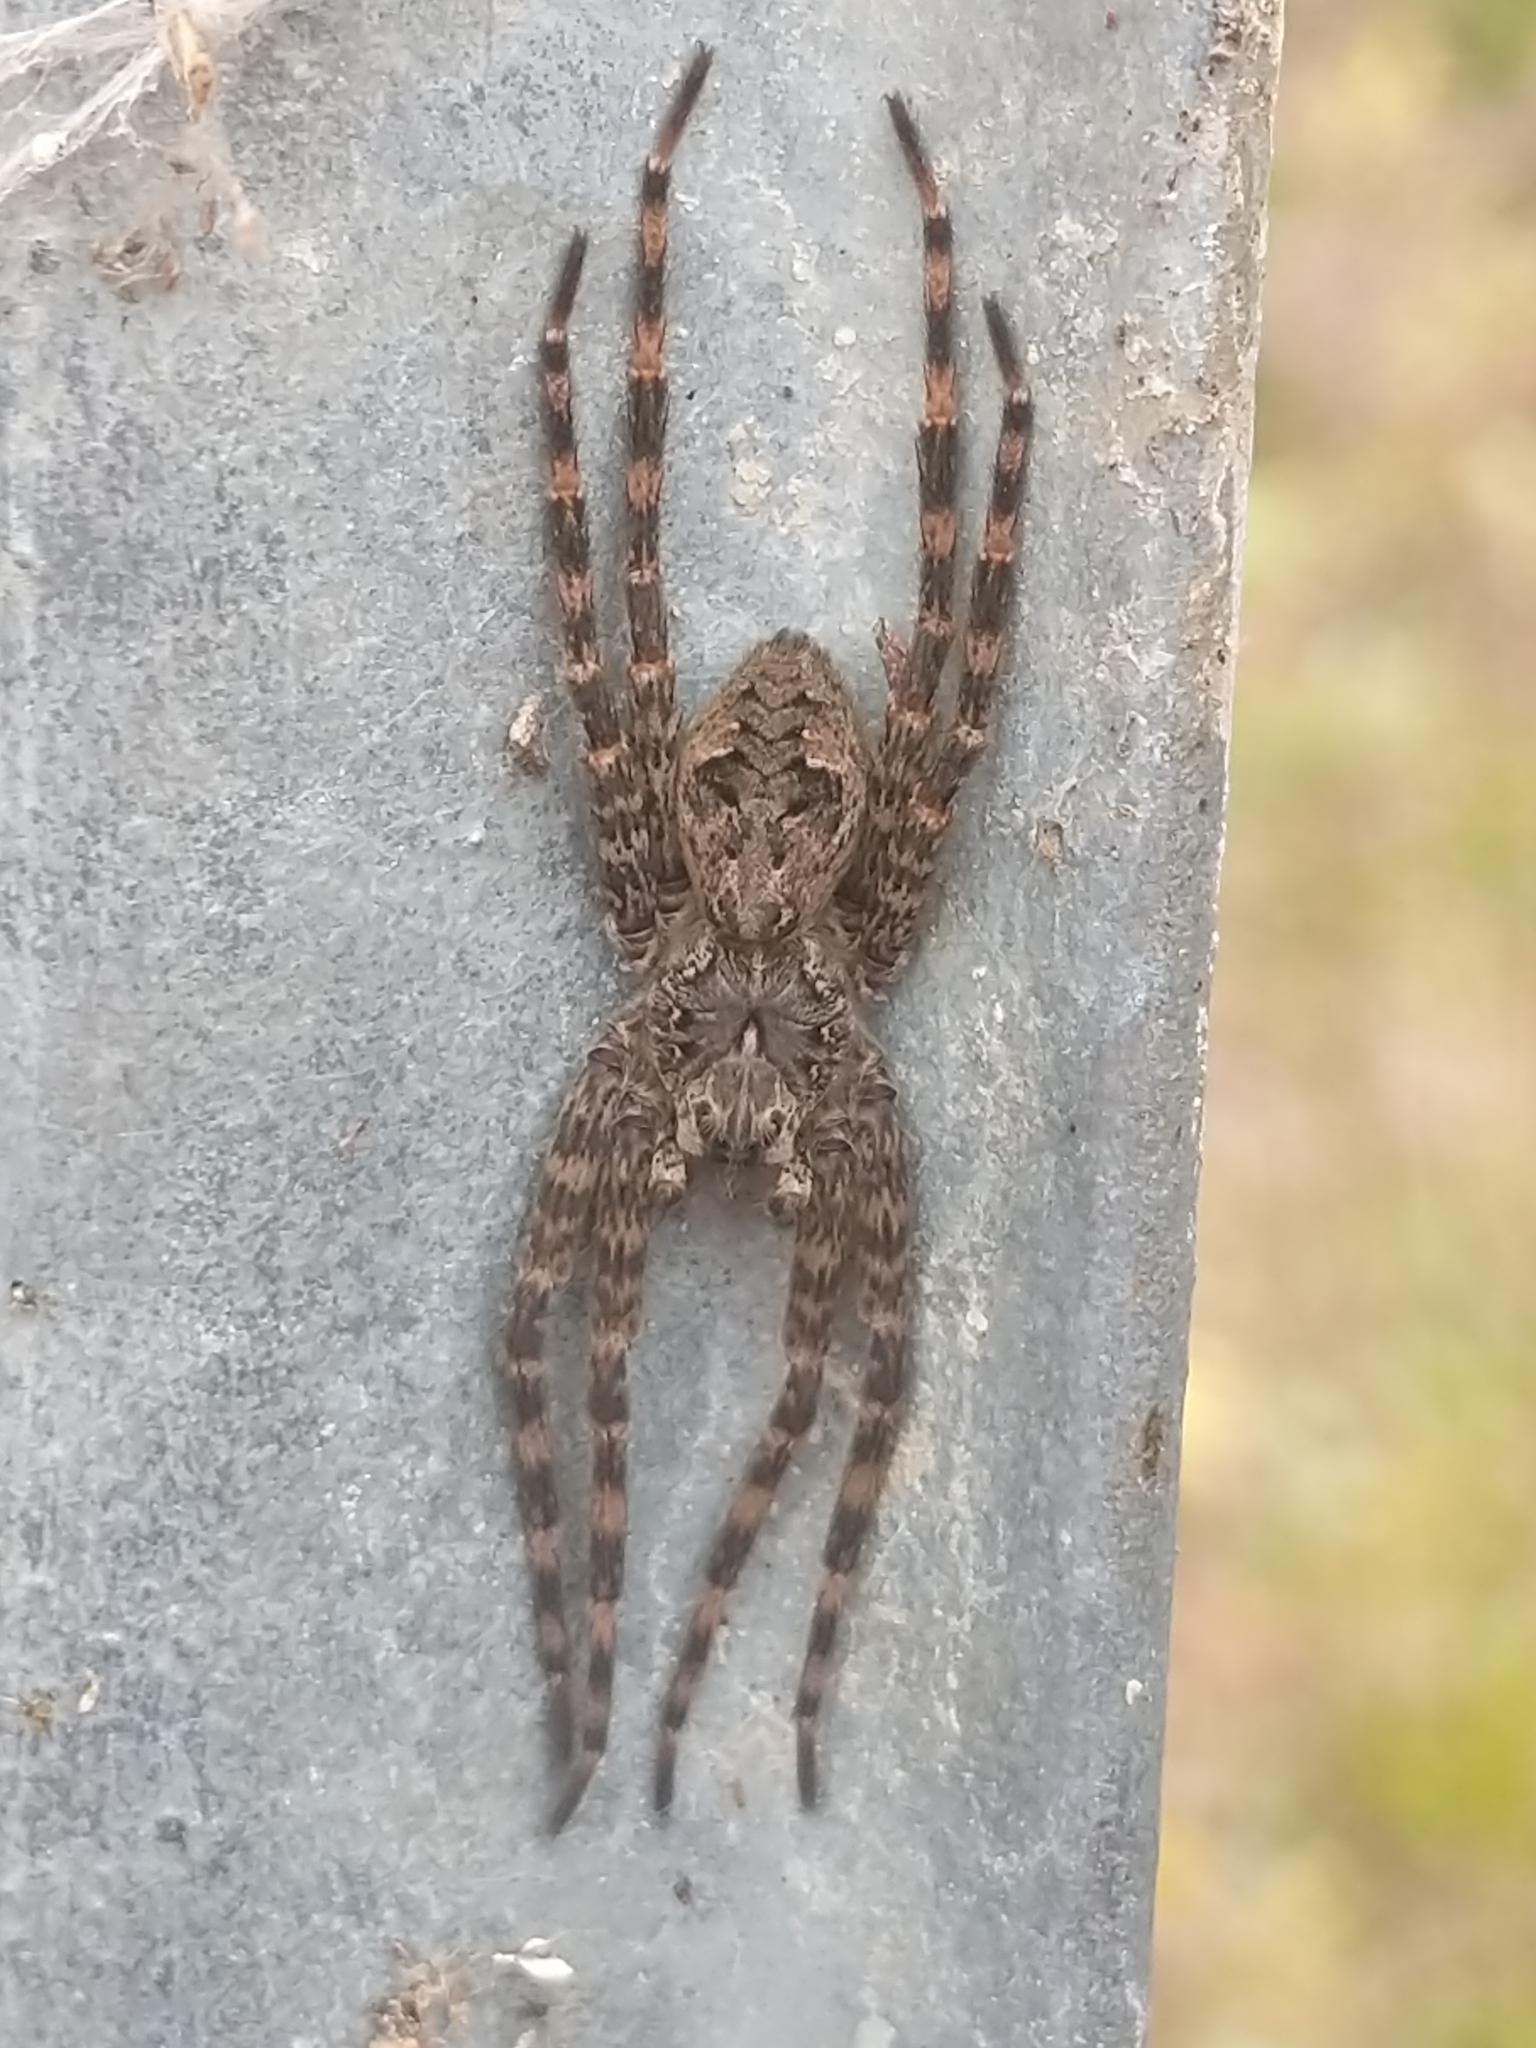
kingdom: Animalia
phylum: Arthropoda
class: Arachnida
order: Araneae
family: Pisauridae
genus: Dolomedes
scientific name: Dolomedes tenebrosus
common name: Dark fishing spider
